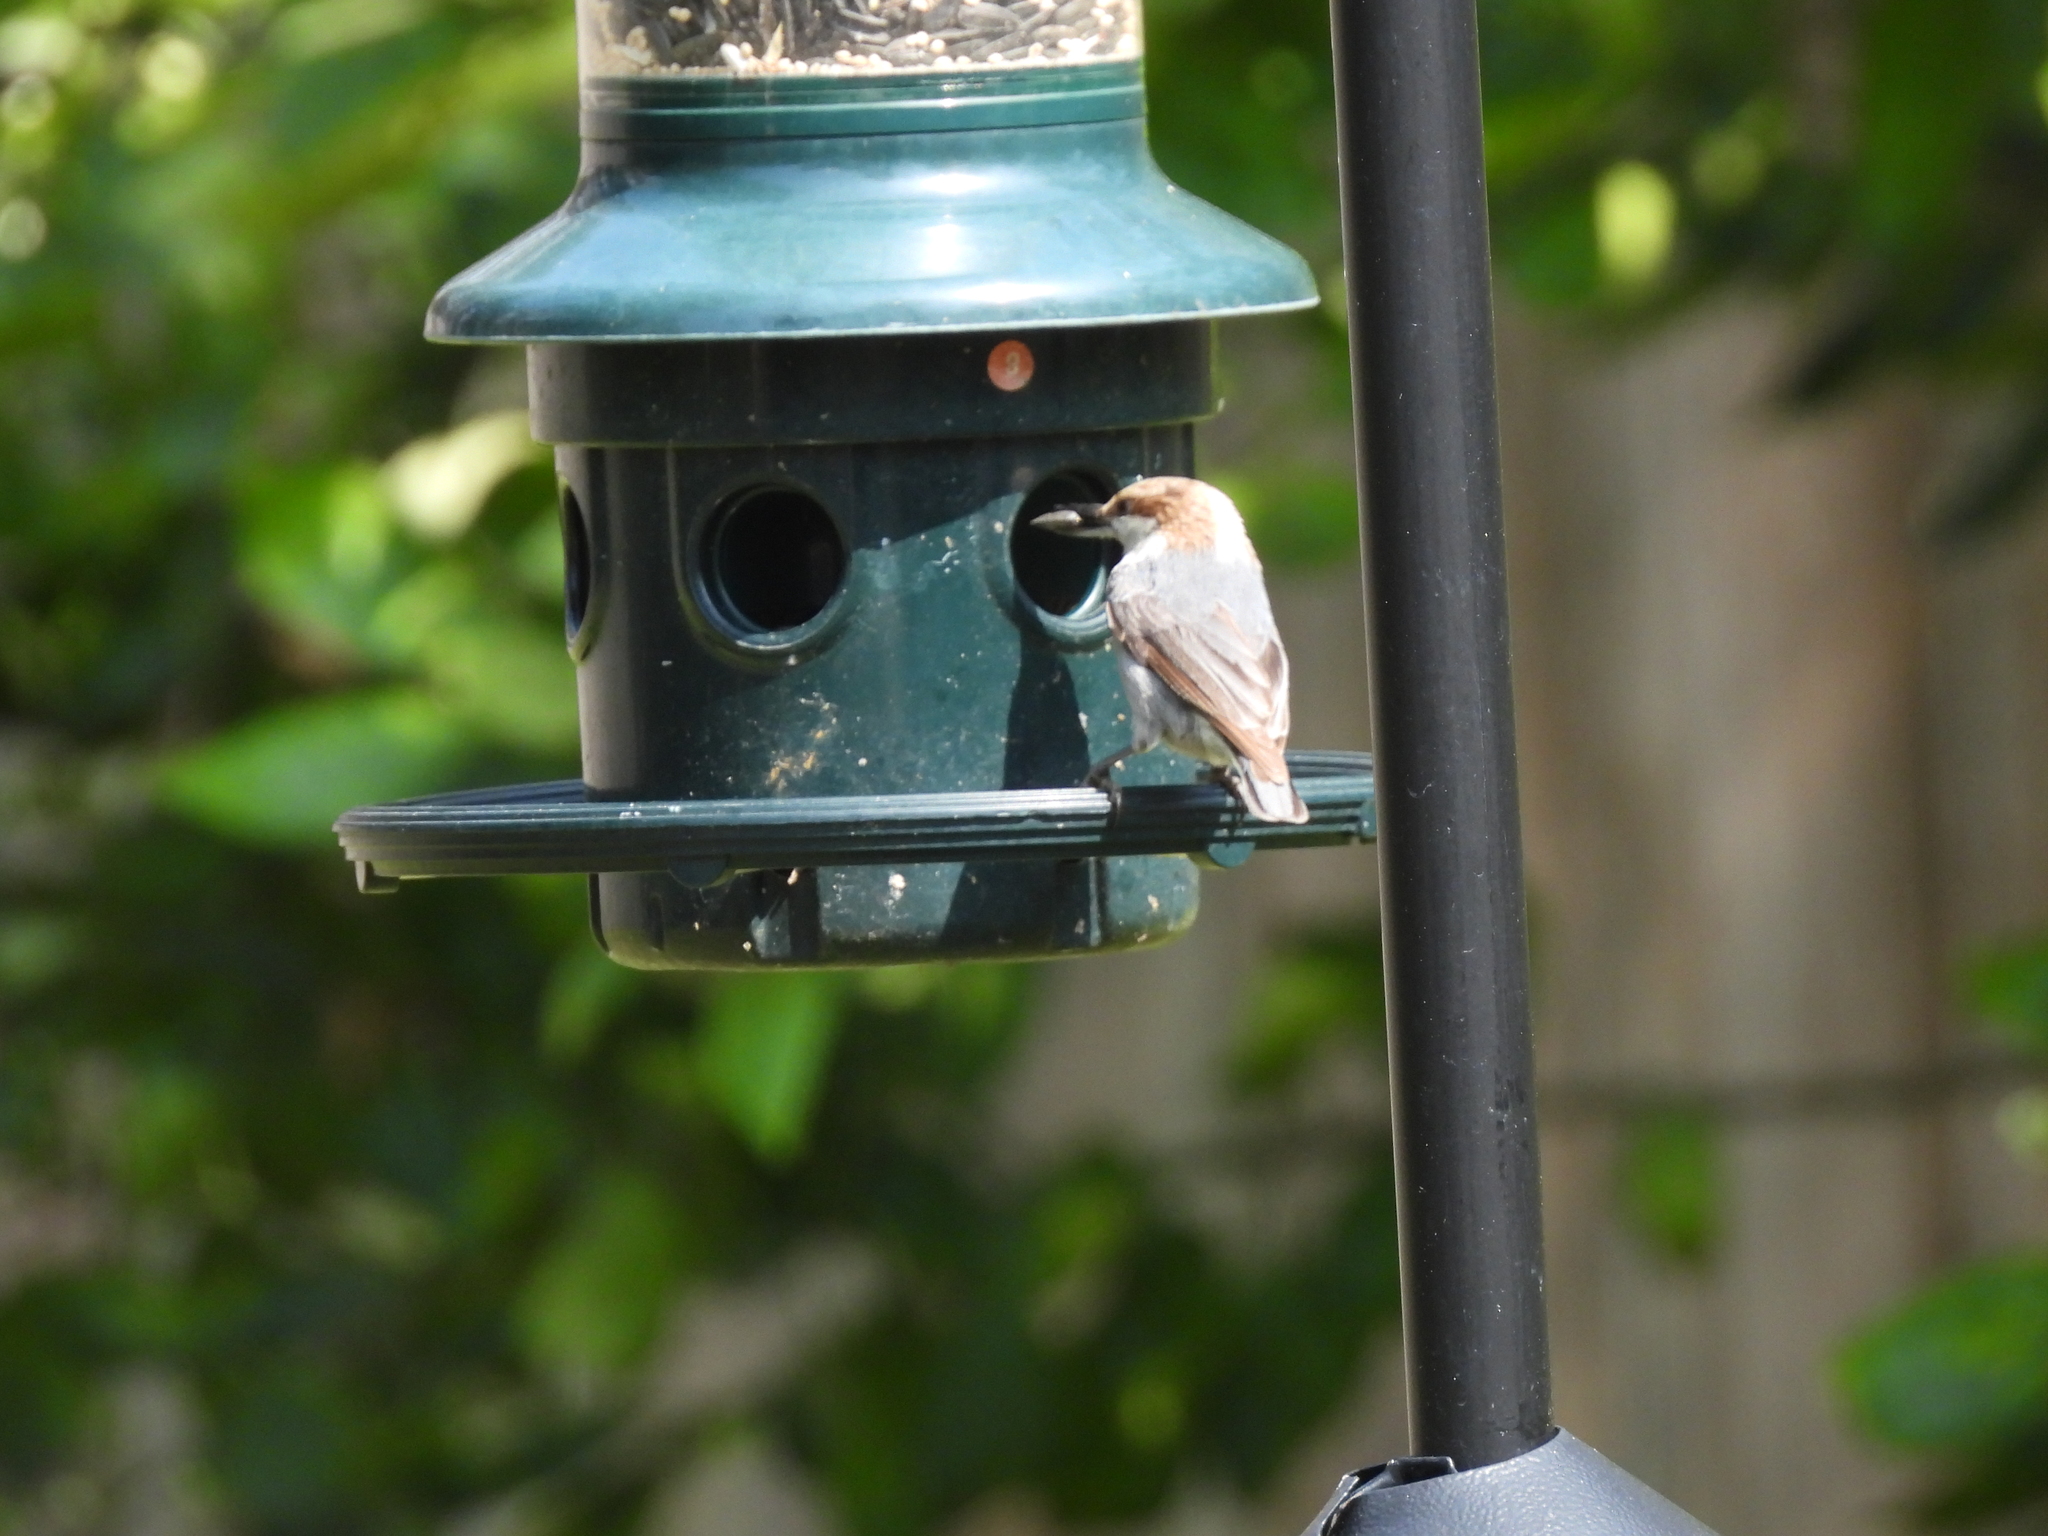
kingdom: Animalia
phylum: Chordata
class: Aves
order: Passeriformes
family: Sittidae
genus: Sitta
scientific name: Sitta pusilla
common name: Brown-headed nuthatch
